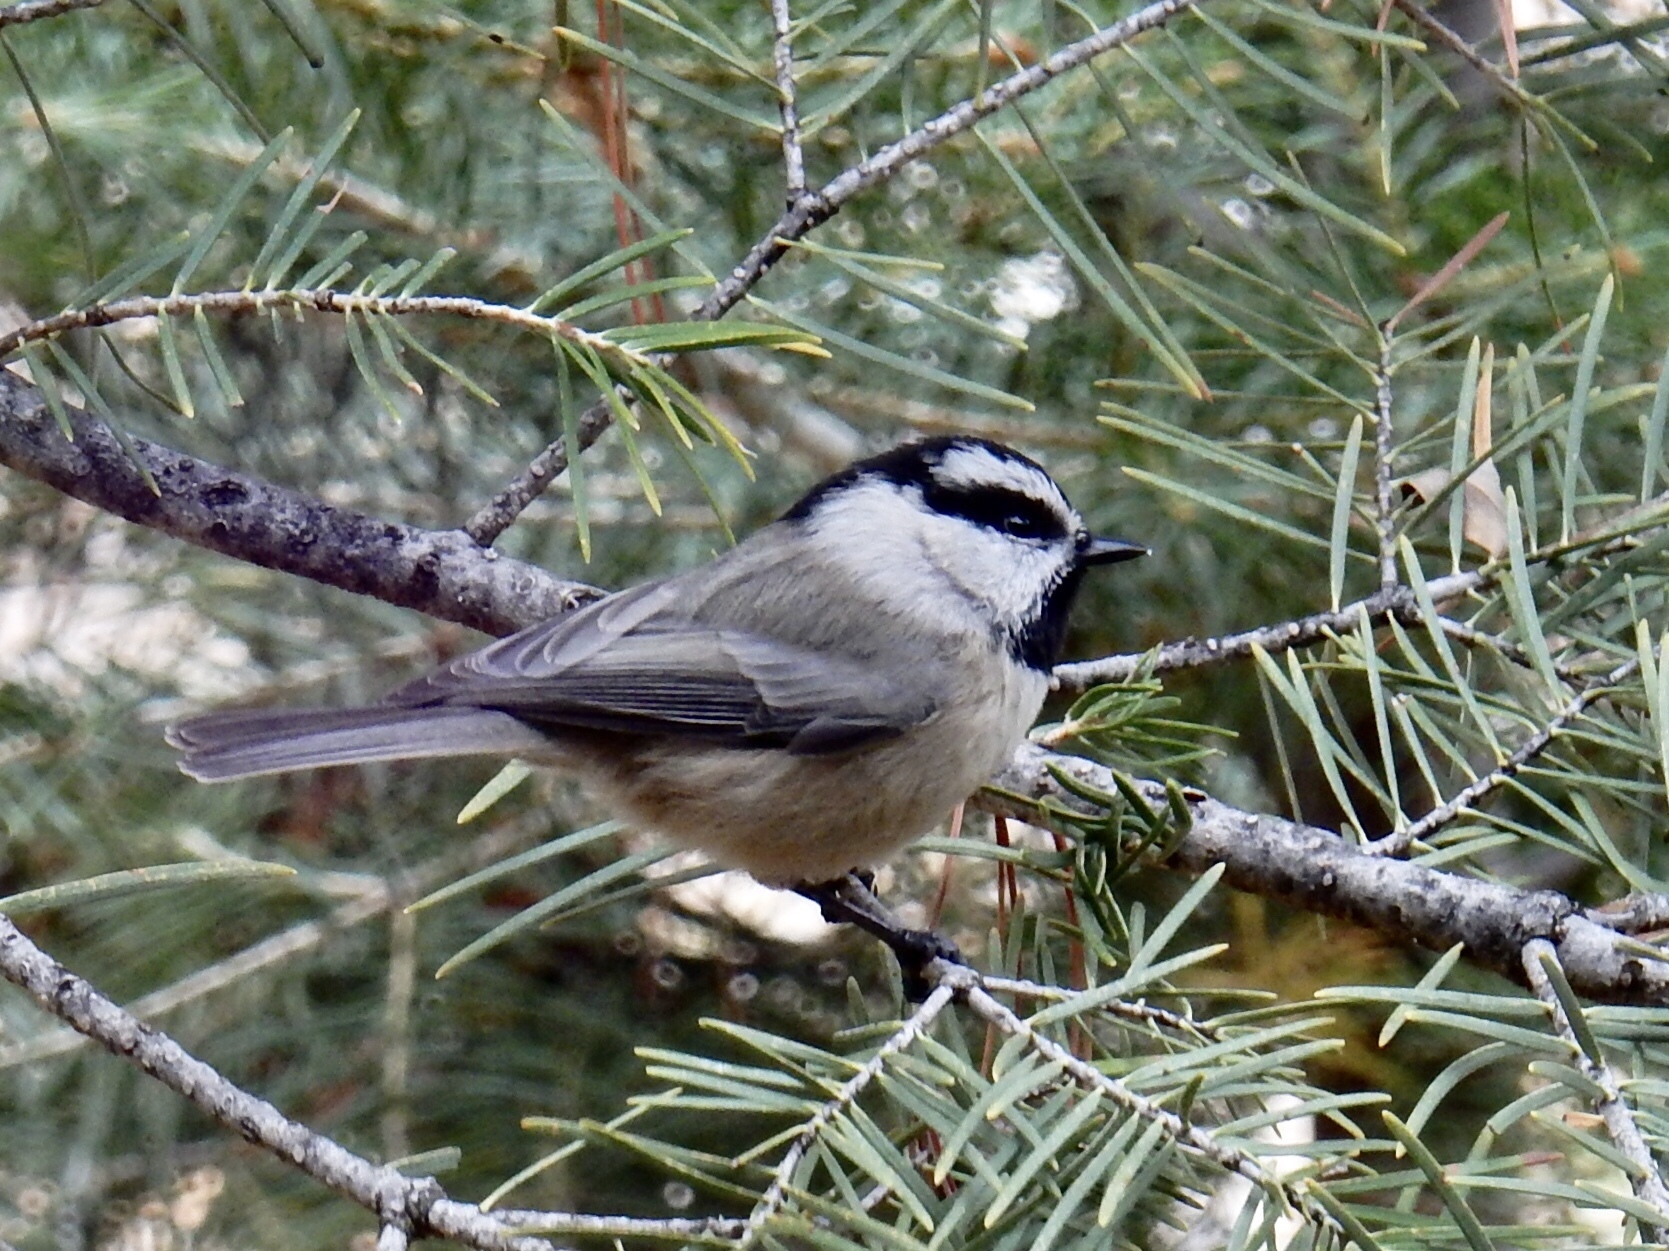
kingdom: Animalia
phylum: Chordata
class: Aves
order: Passeriformes
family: Paridae
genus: Poecile
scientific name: Poecile gambeli
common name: Mountain chickadee
